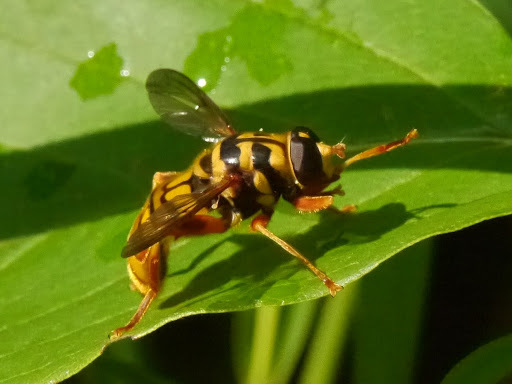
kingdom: Animalia
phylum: Arthropoda
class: Insecta
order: Diptera
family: Syrphidae
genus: Milesia
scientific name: Milesia virginiensis
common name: Virginia giant
